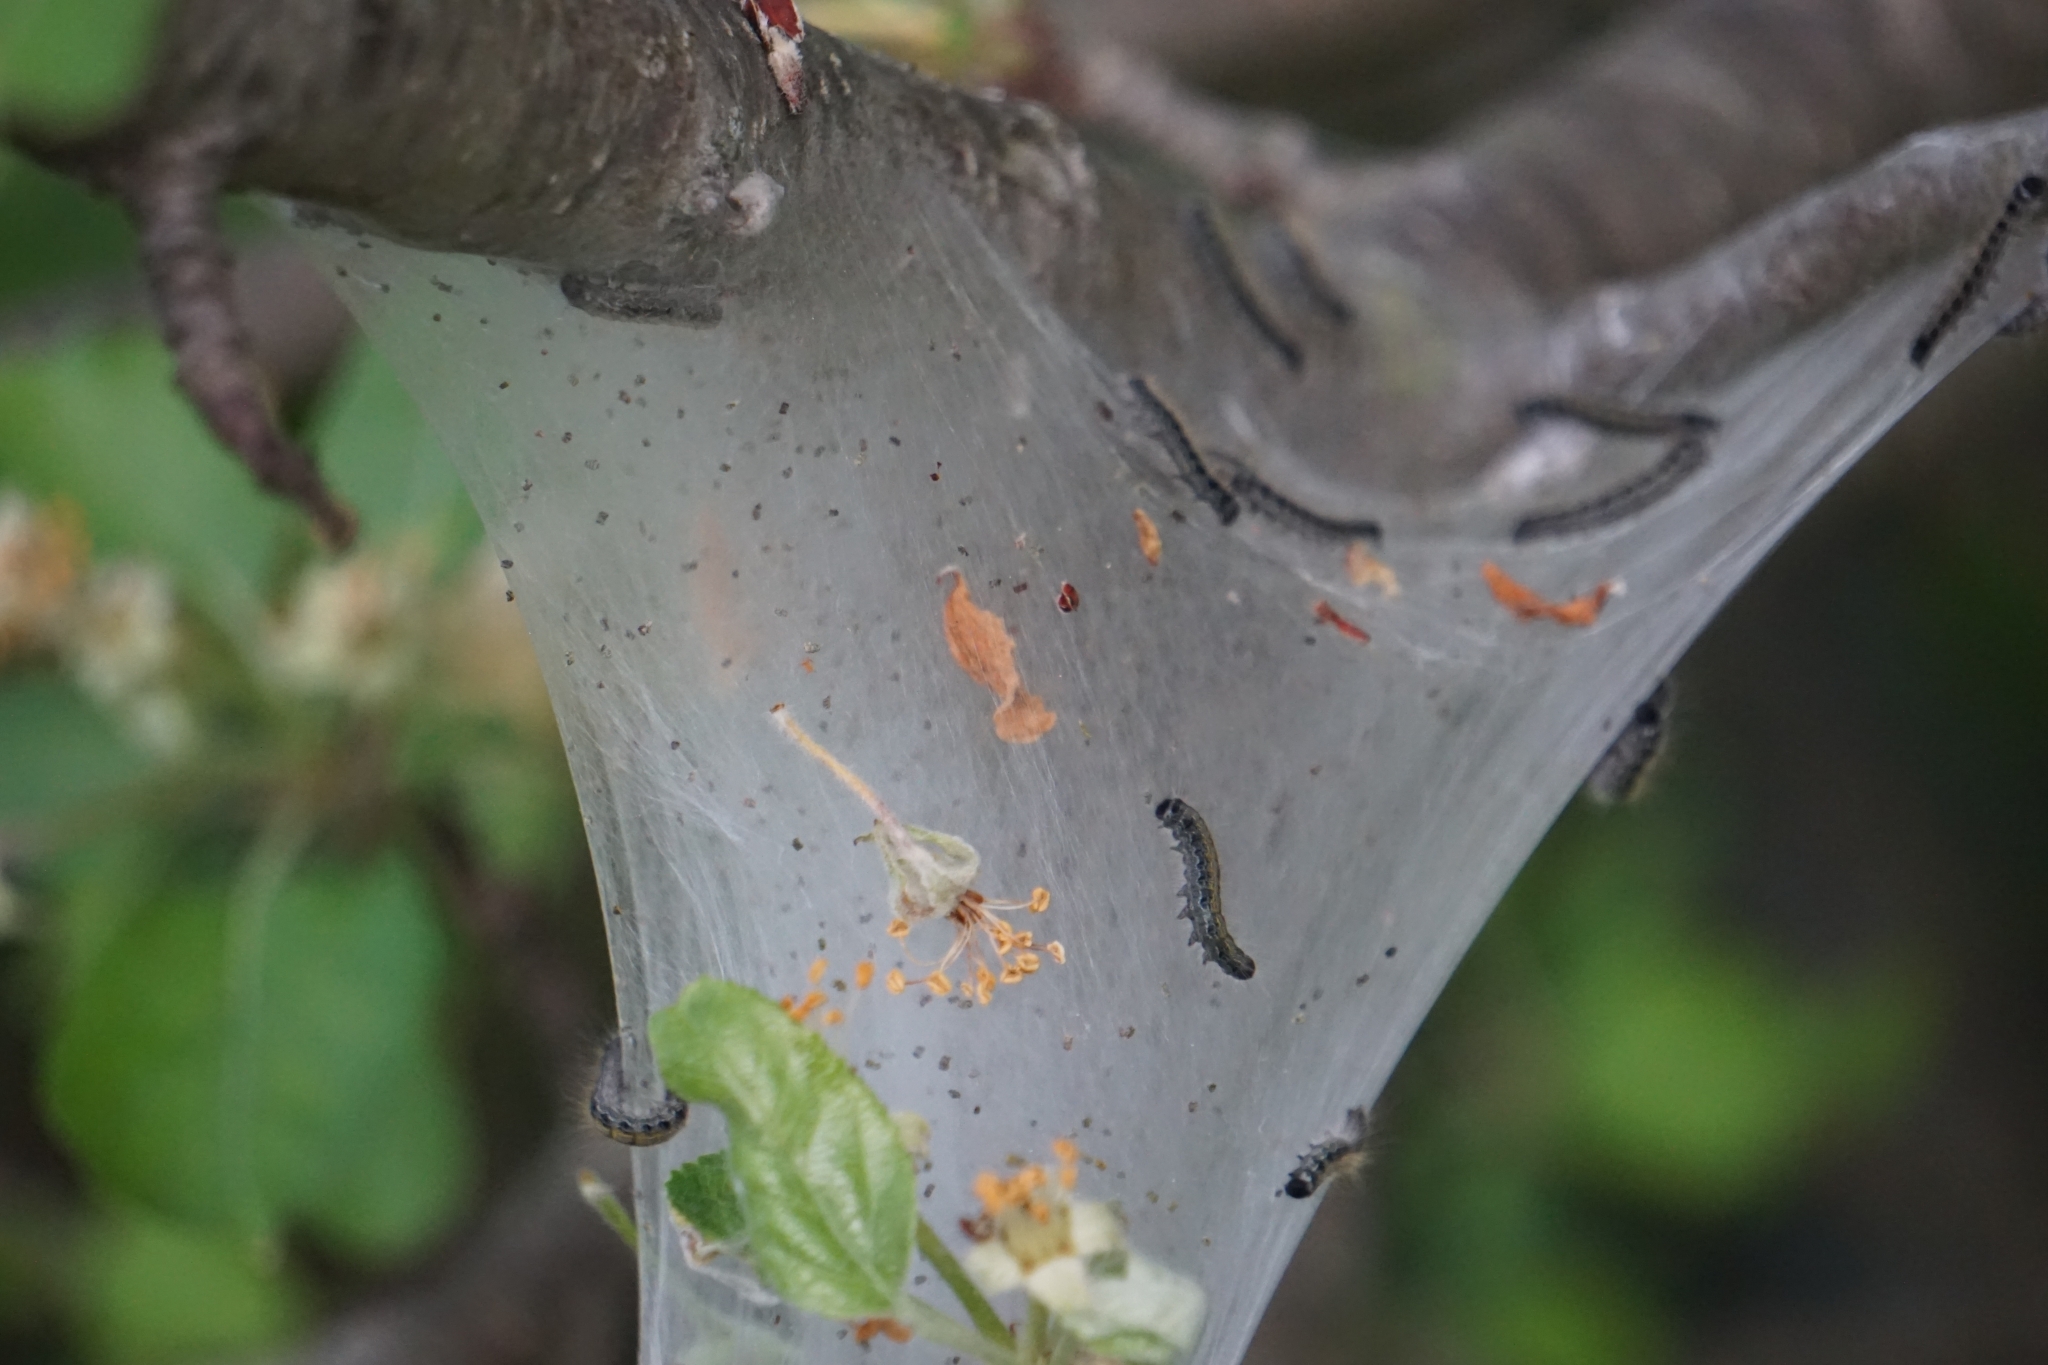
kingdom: Animalia
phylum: Arthropoda
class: Insecta
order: Lepidoptera
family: Lasiocampidae
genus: Malacosoma
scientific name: Malacosoma americana
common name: Eastern tent caterpillar moth
